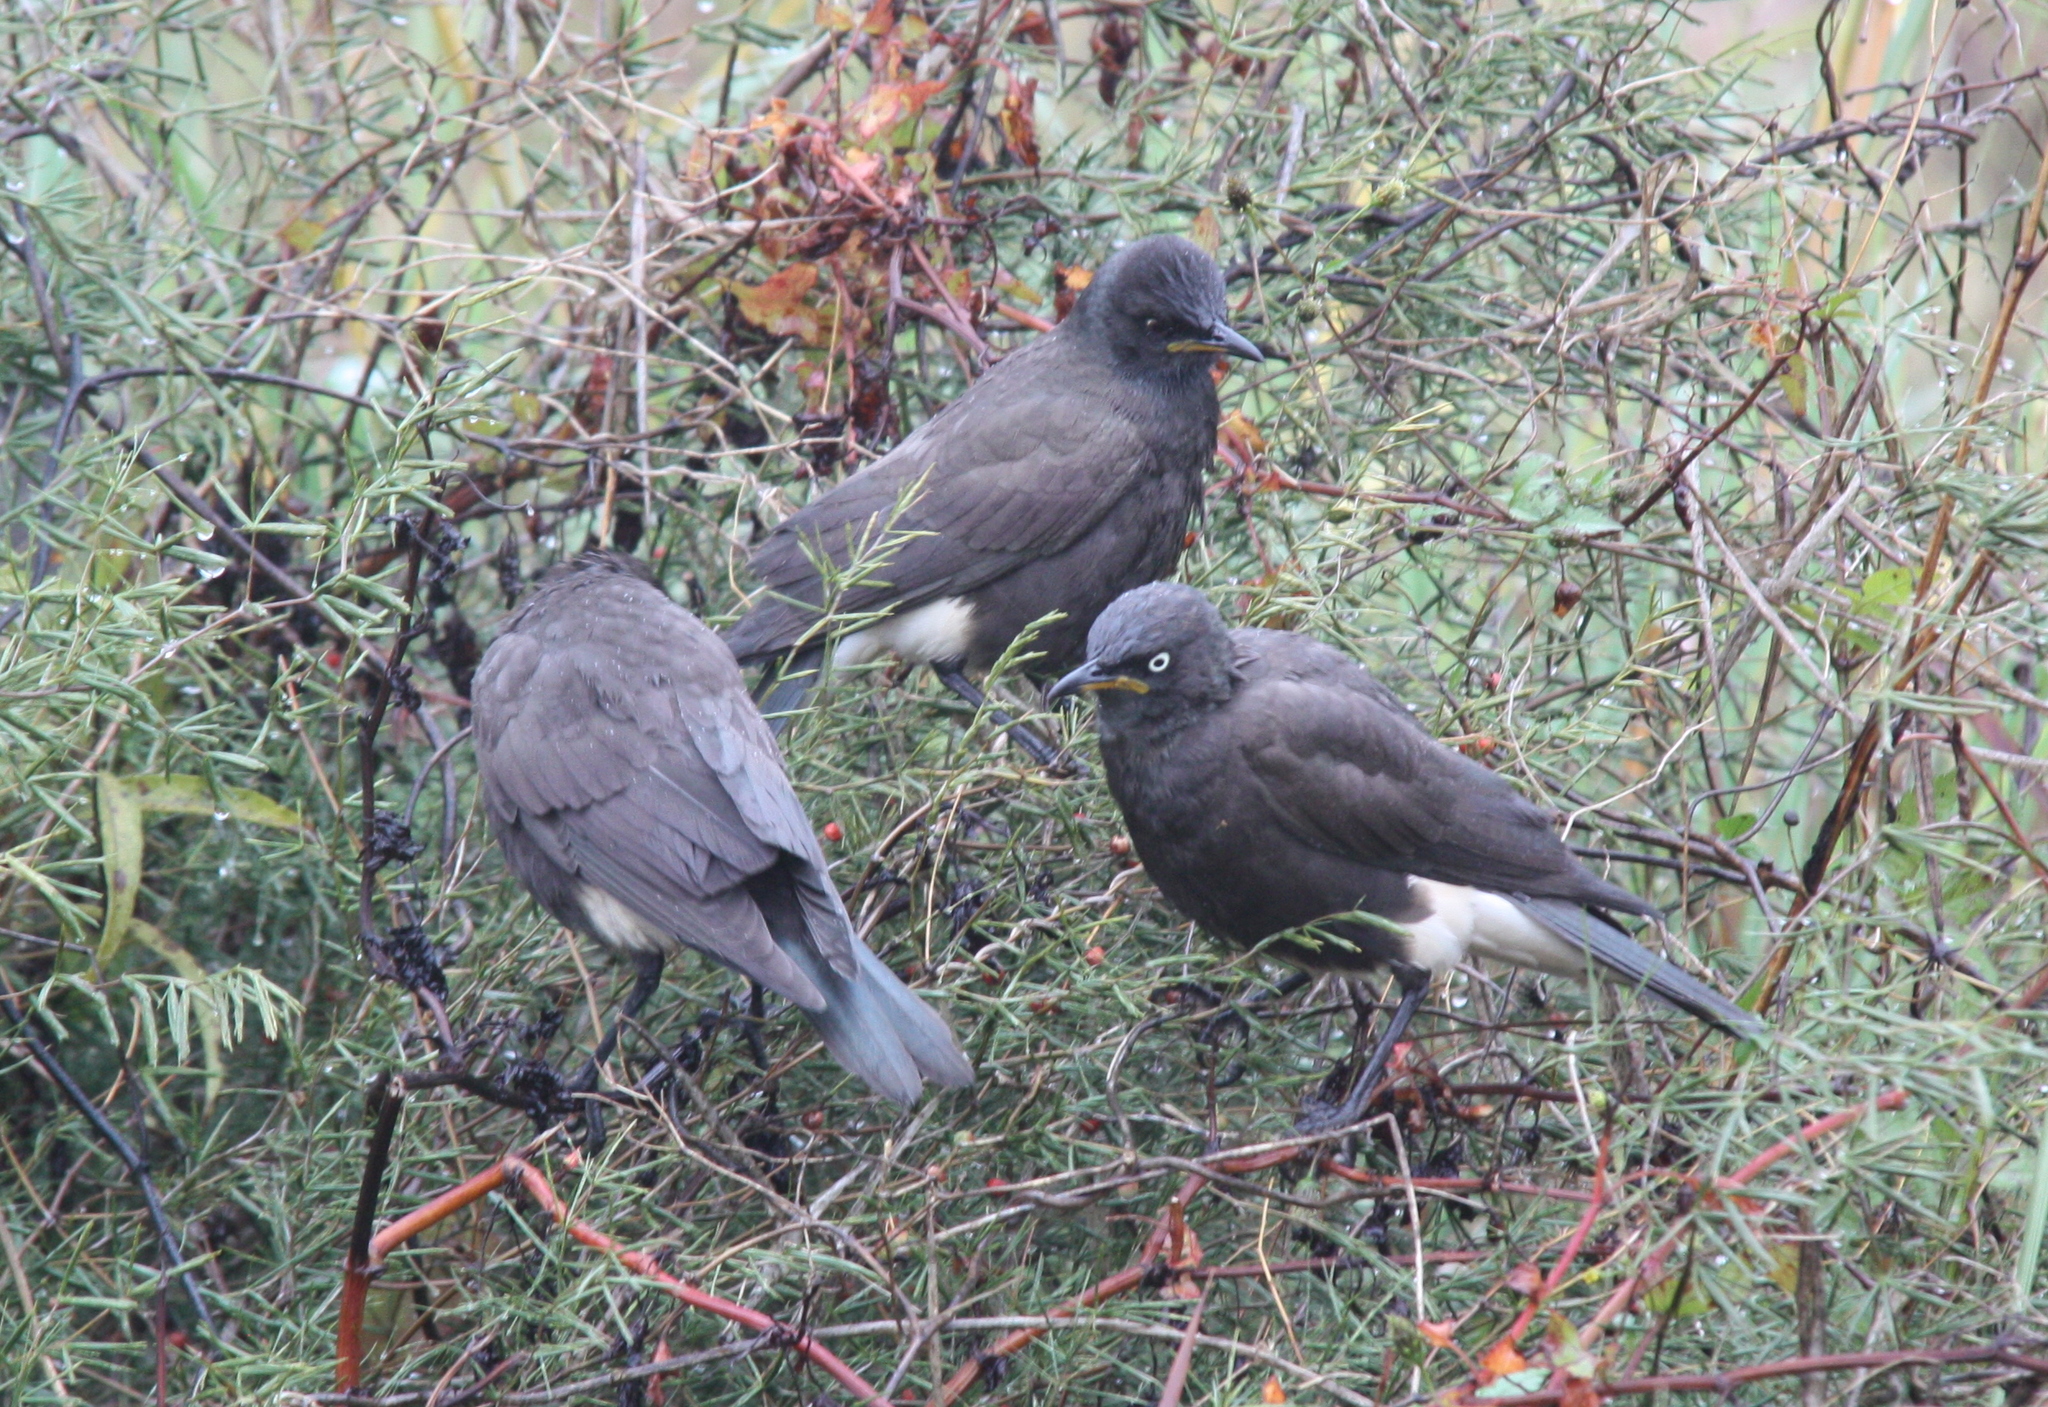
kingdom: Animalia
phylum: Chordata
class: Aves
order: Passeriformes
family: Sturnidae
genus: Lamprotornis
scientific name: Lamprotornis bicolor
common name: Pied starling
